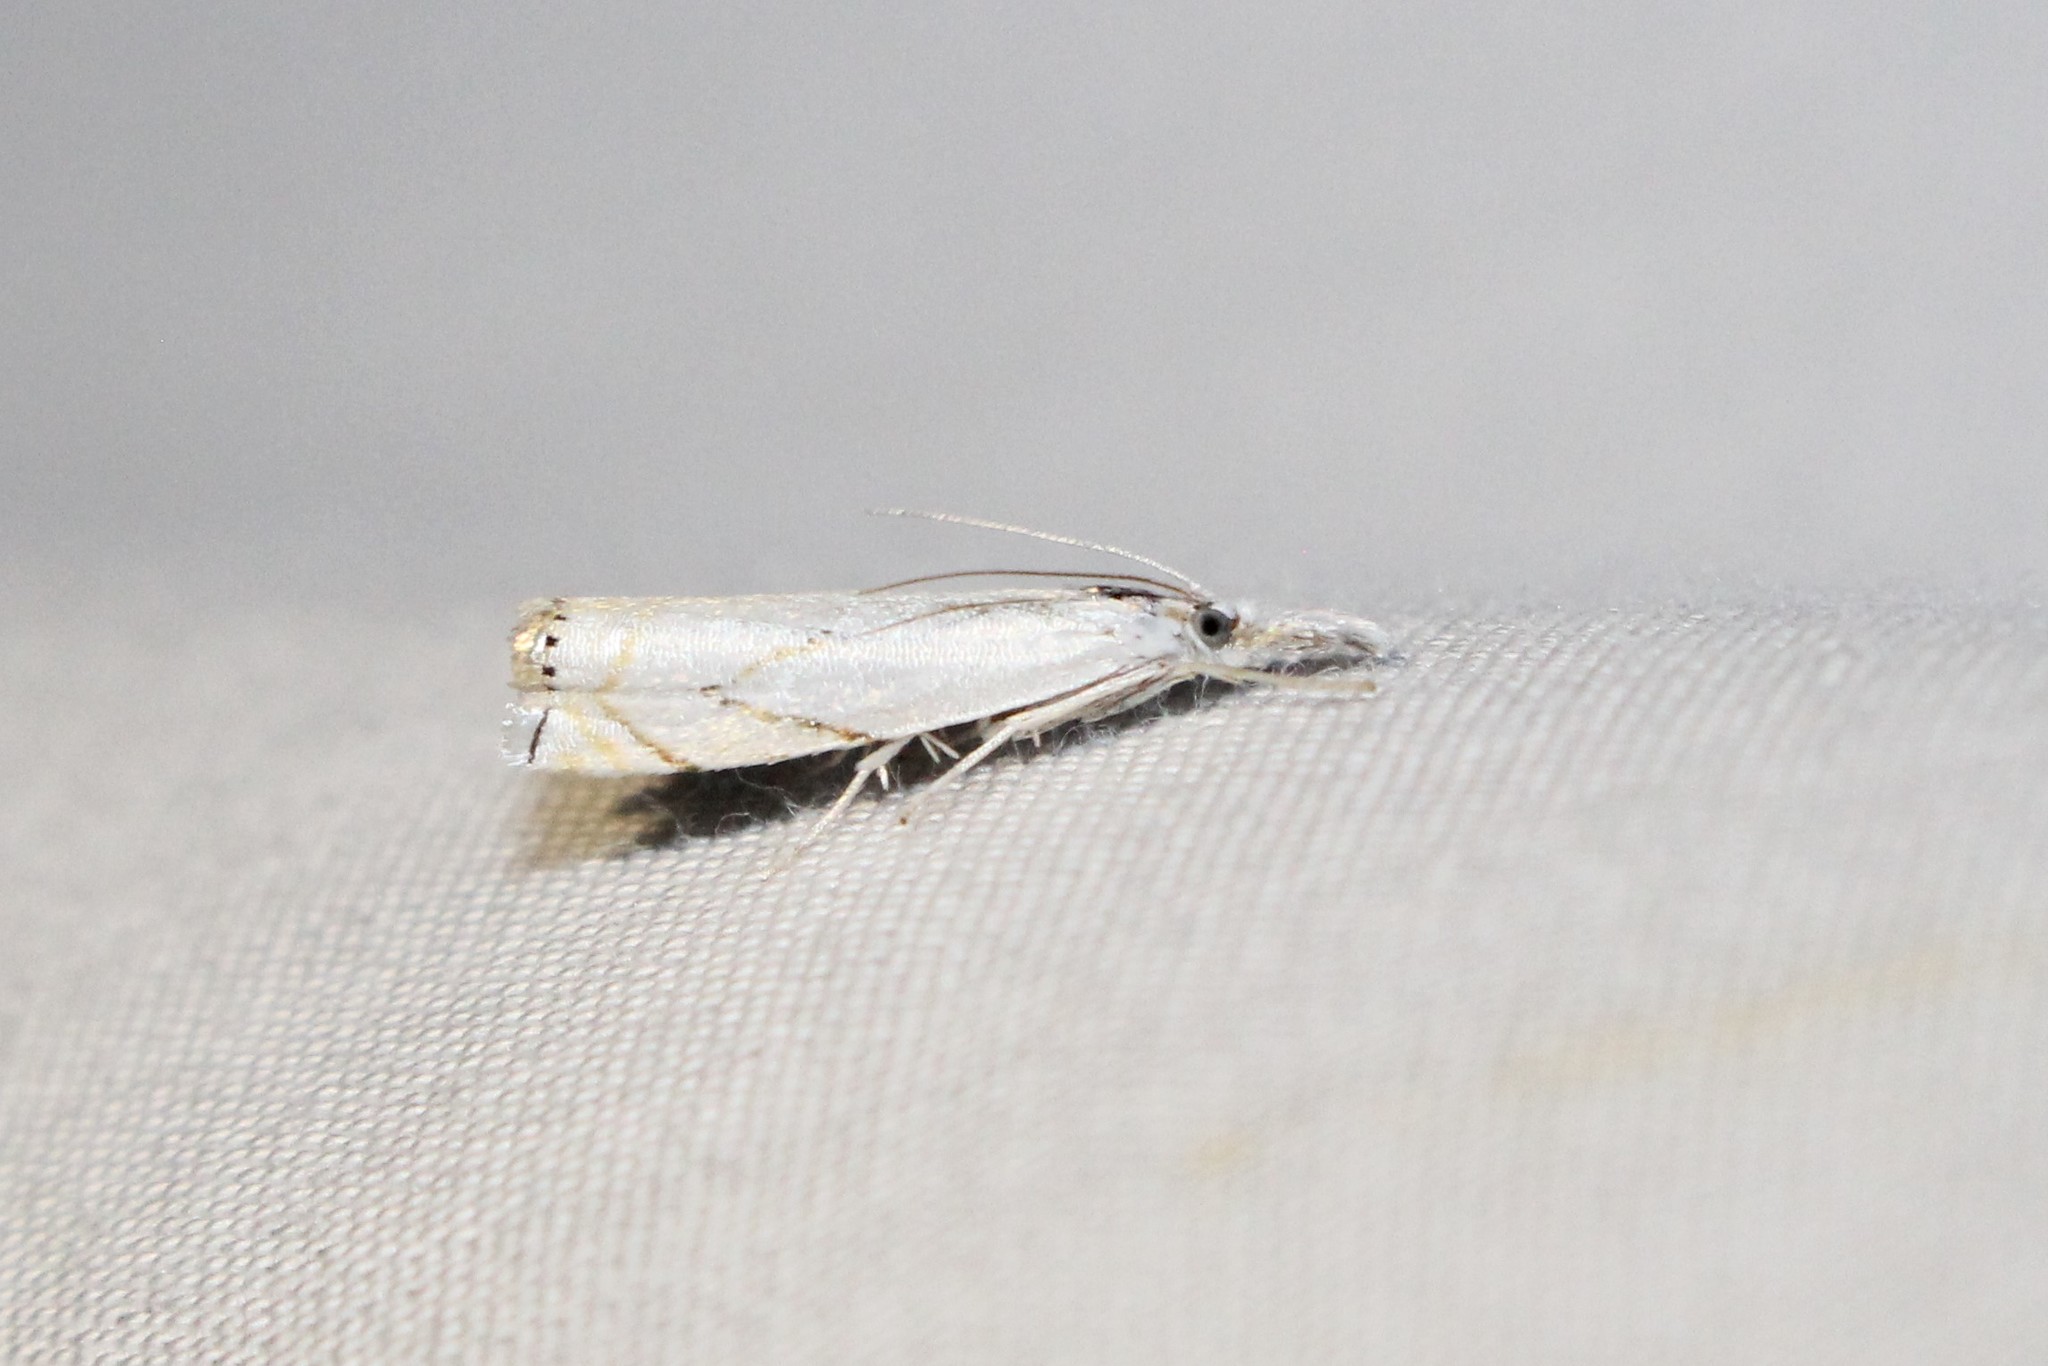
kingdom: Animalia
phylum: Arthropoda
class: Insecta
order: Lepidoptera
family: Crambidae
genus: Crambus
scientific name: Crambus albellus
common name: Small white grass-veneer
